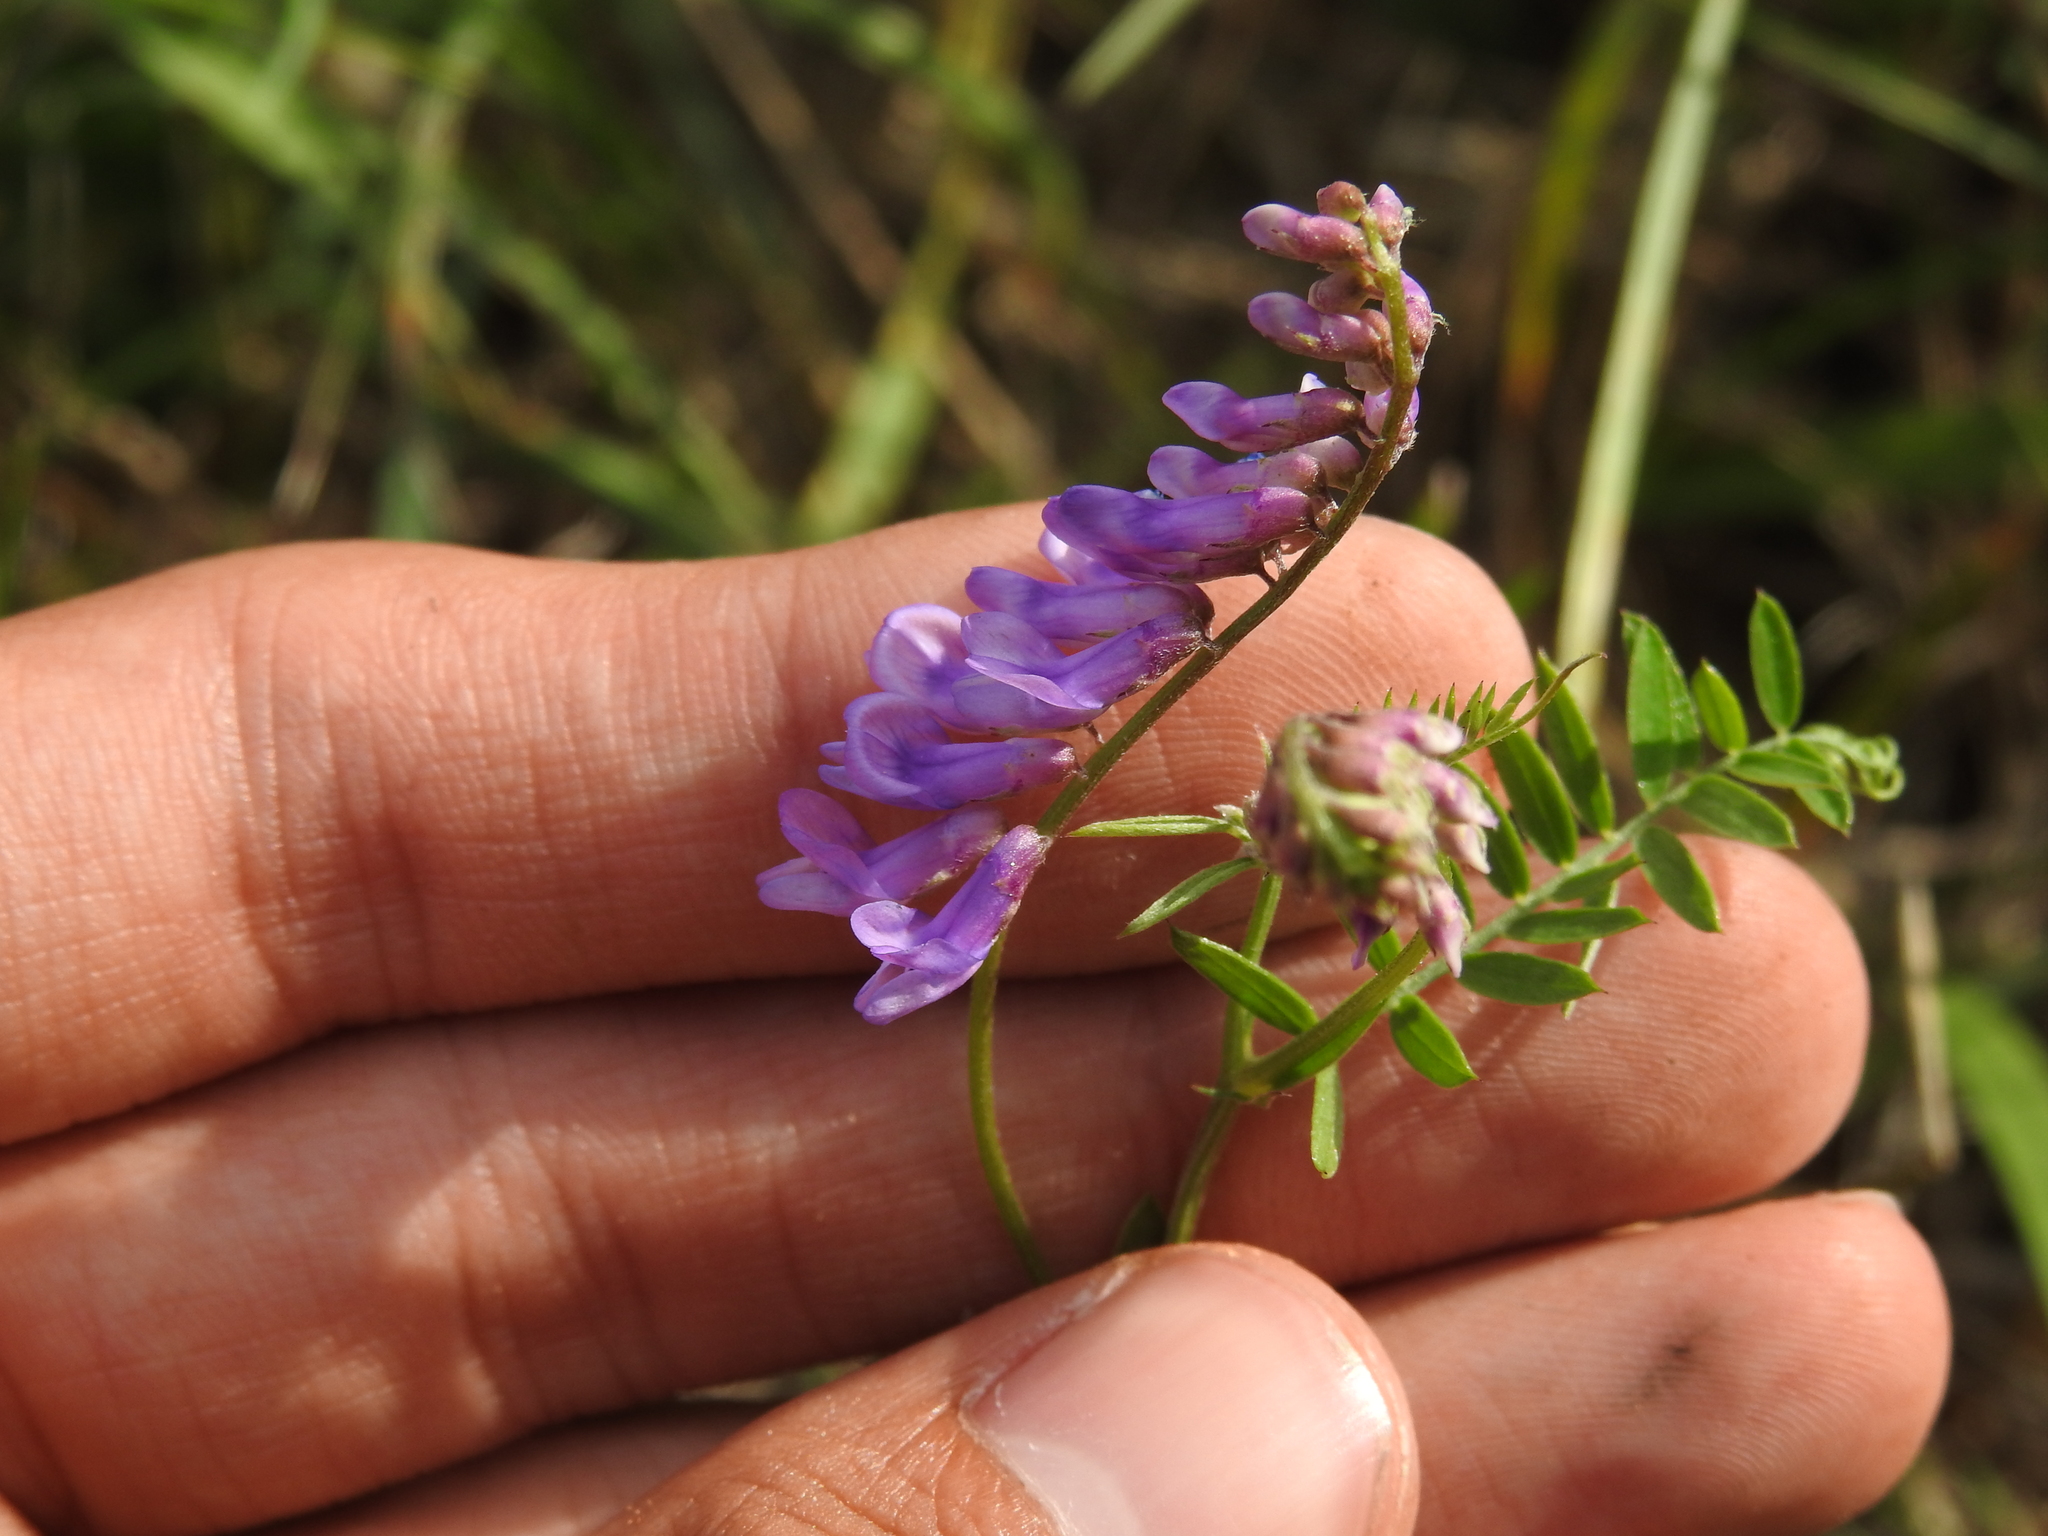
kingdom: Plantae
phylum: Tracheophyta
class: Magnoliopsida
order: Fabales
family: Fabaceae
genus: Vicia
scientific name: Vicia cracca
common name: Bird vetch
